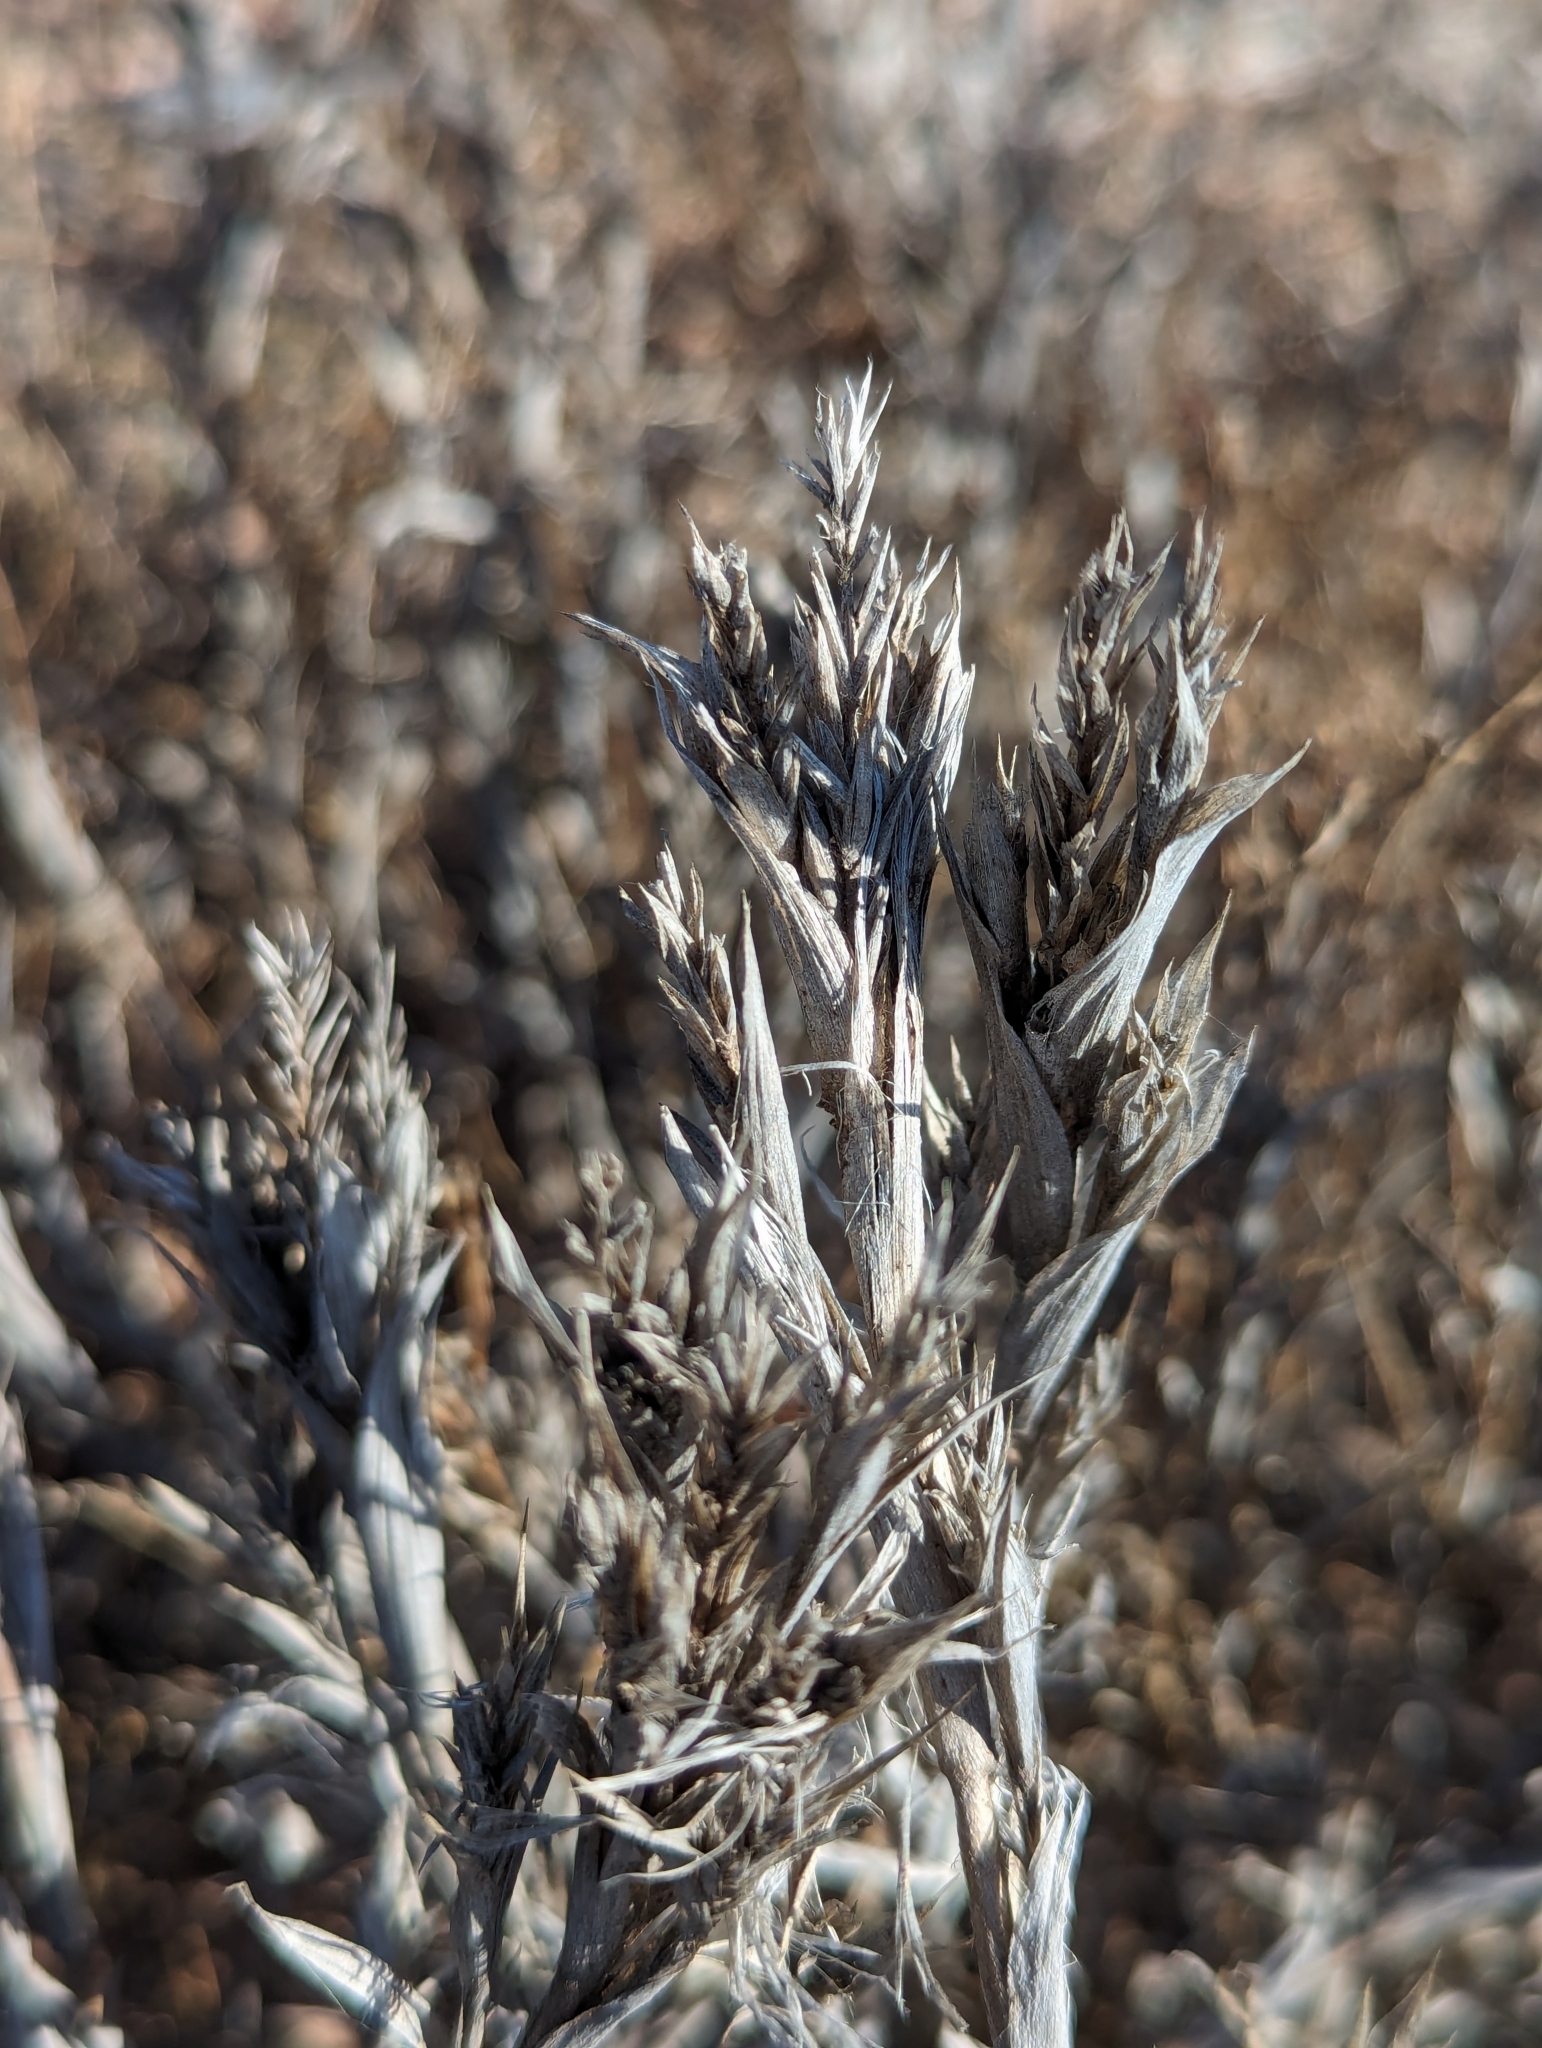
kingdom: Plantae
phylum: Tracheophyta
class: Liliopsida
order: Poales
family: Poaceae
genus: Tuctoria
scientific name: Tuctoria fragilis
